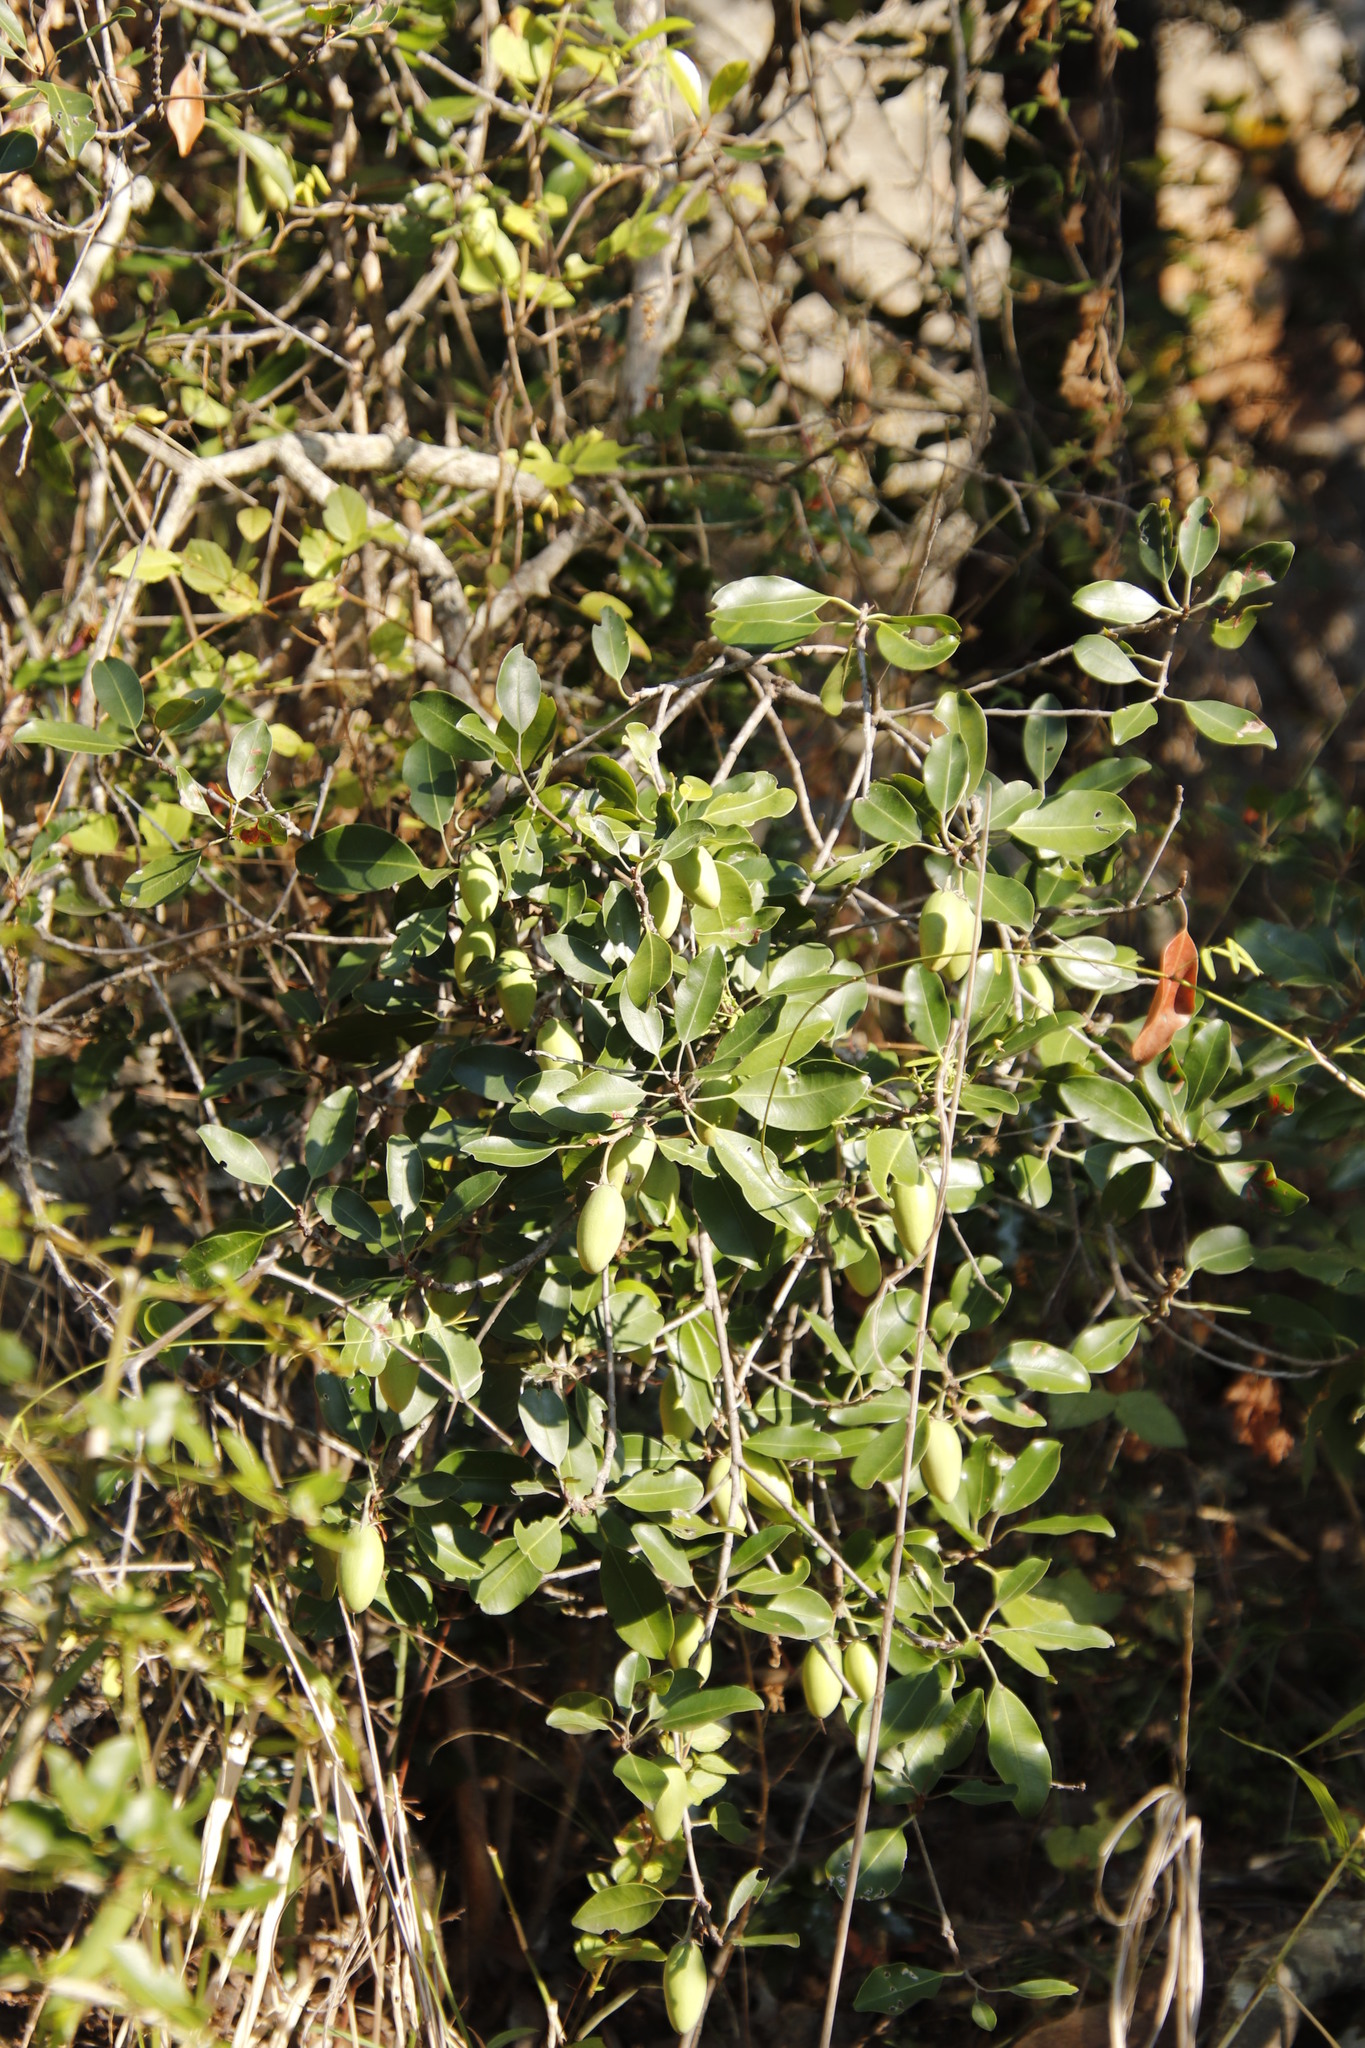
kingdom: Plantae
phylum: Tracheophyta
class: Magnoliopsida
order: Ericales
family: Sapotaceae
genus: Mimusops
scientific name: Mimusops zeyheri
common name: Transvaal red milkwood
